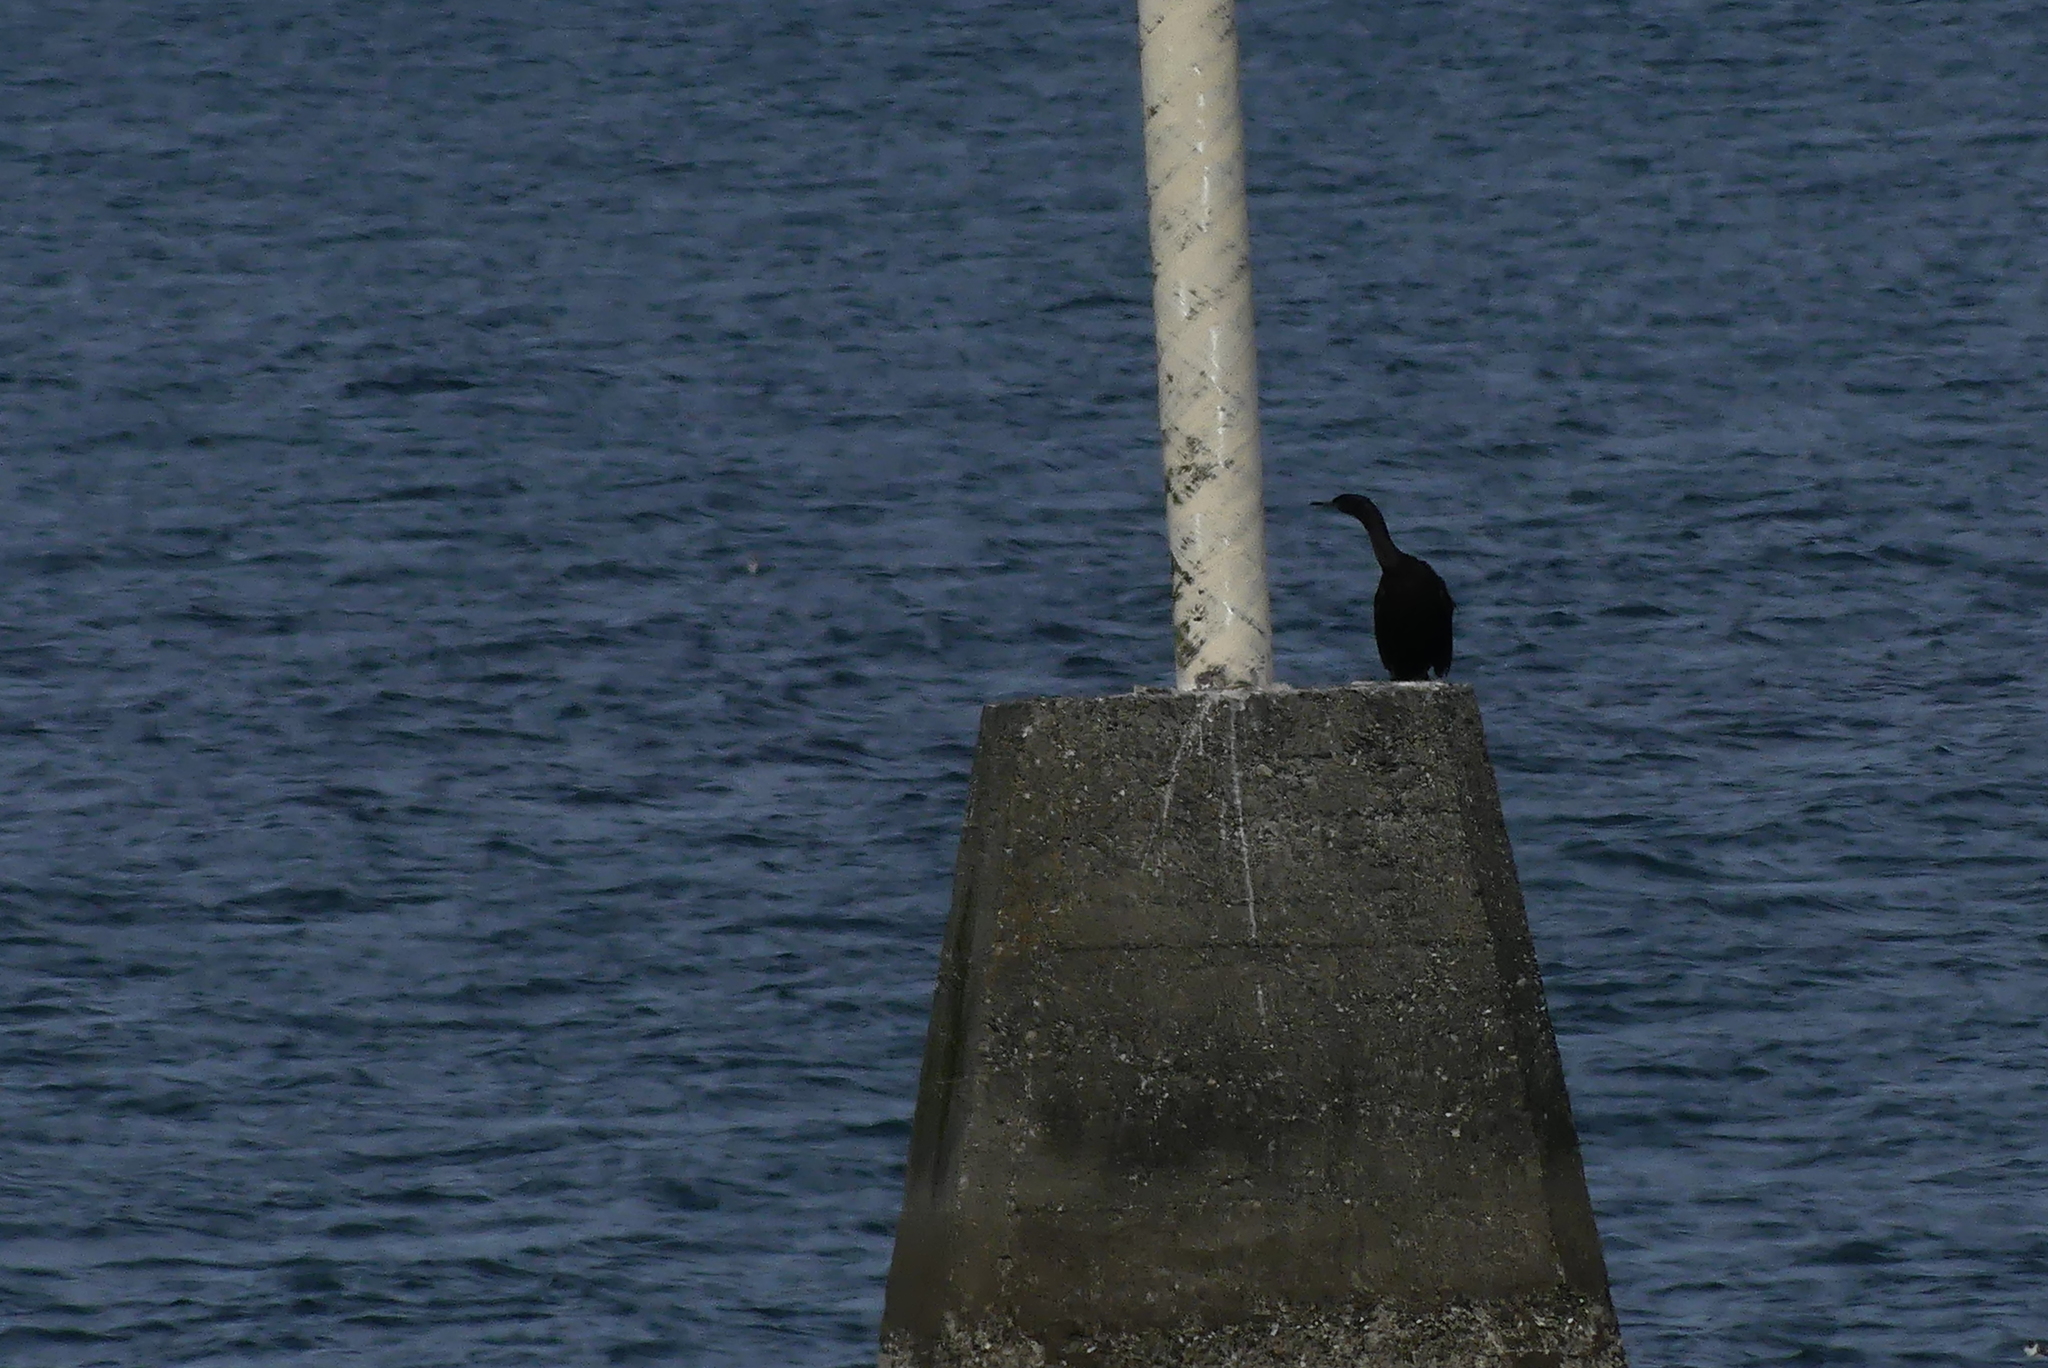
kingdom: Animalia
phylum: Chordata
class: Aves
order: Suliformes
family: Phalacrocoracidae
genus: Phalacrocorax
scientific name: Phalacrocorax pelagicus
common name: Pelagic cormorant
